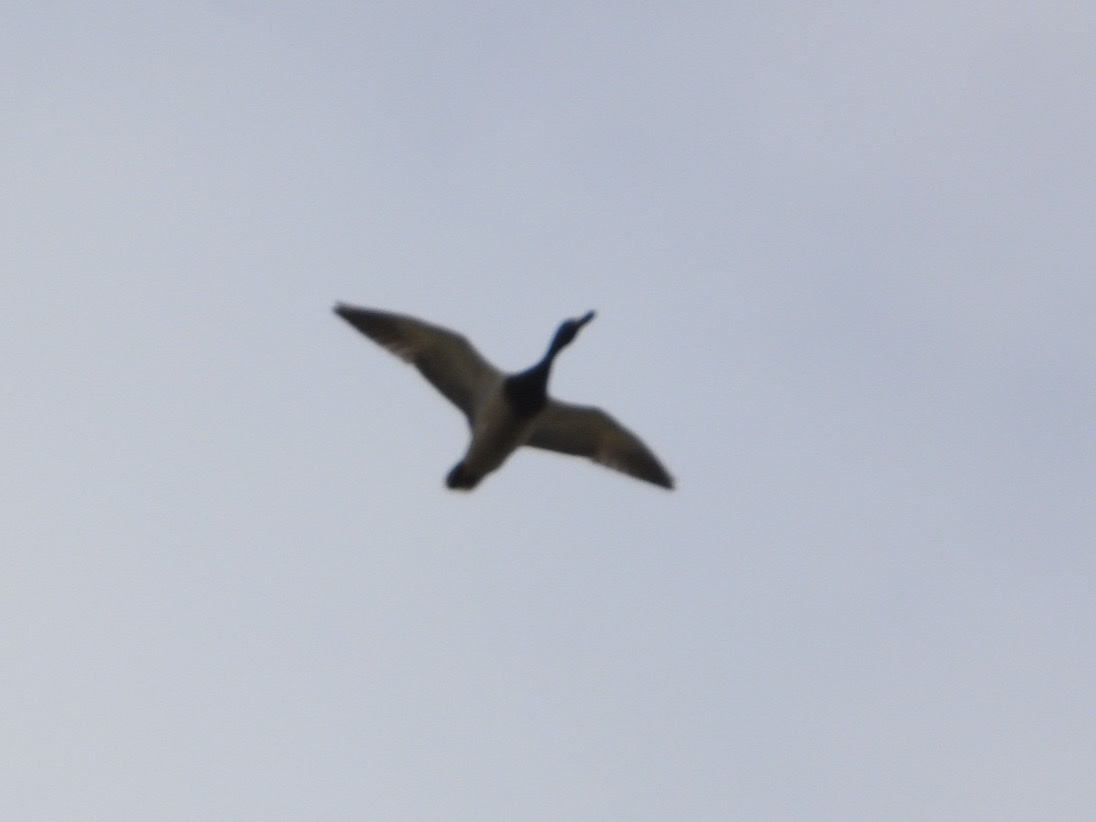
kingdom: Animalia
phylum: Chordata
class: Aves
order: Anseriformes
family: Anatidae
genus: Anas
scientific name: Anas platyrhynchos
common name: Mallard
